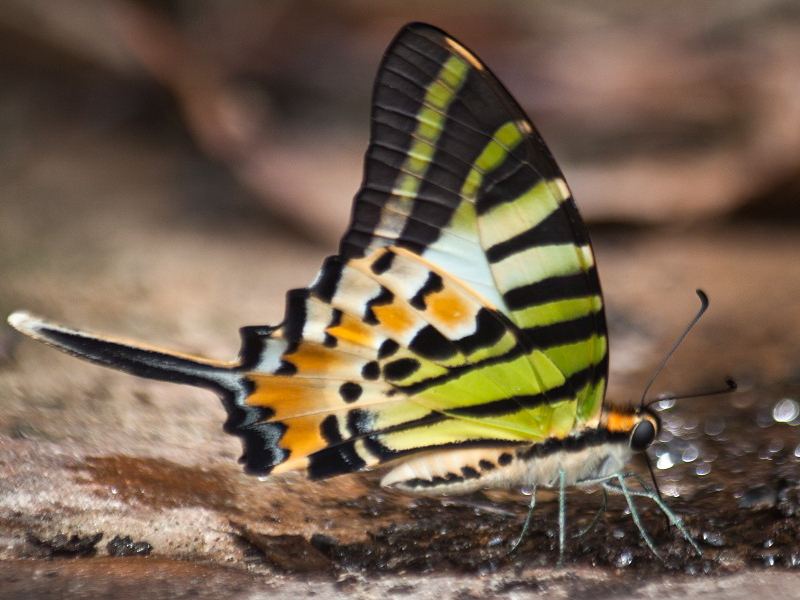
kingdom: Animalia
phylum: Arthropoda
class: Insecta
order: Lepidoptera
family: Papilionidae
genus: Graphium
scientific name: Graphium antiphates
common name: Fivebar swordtail
